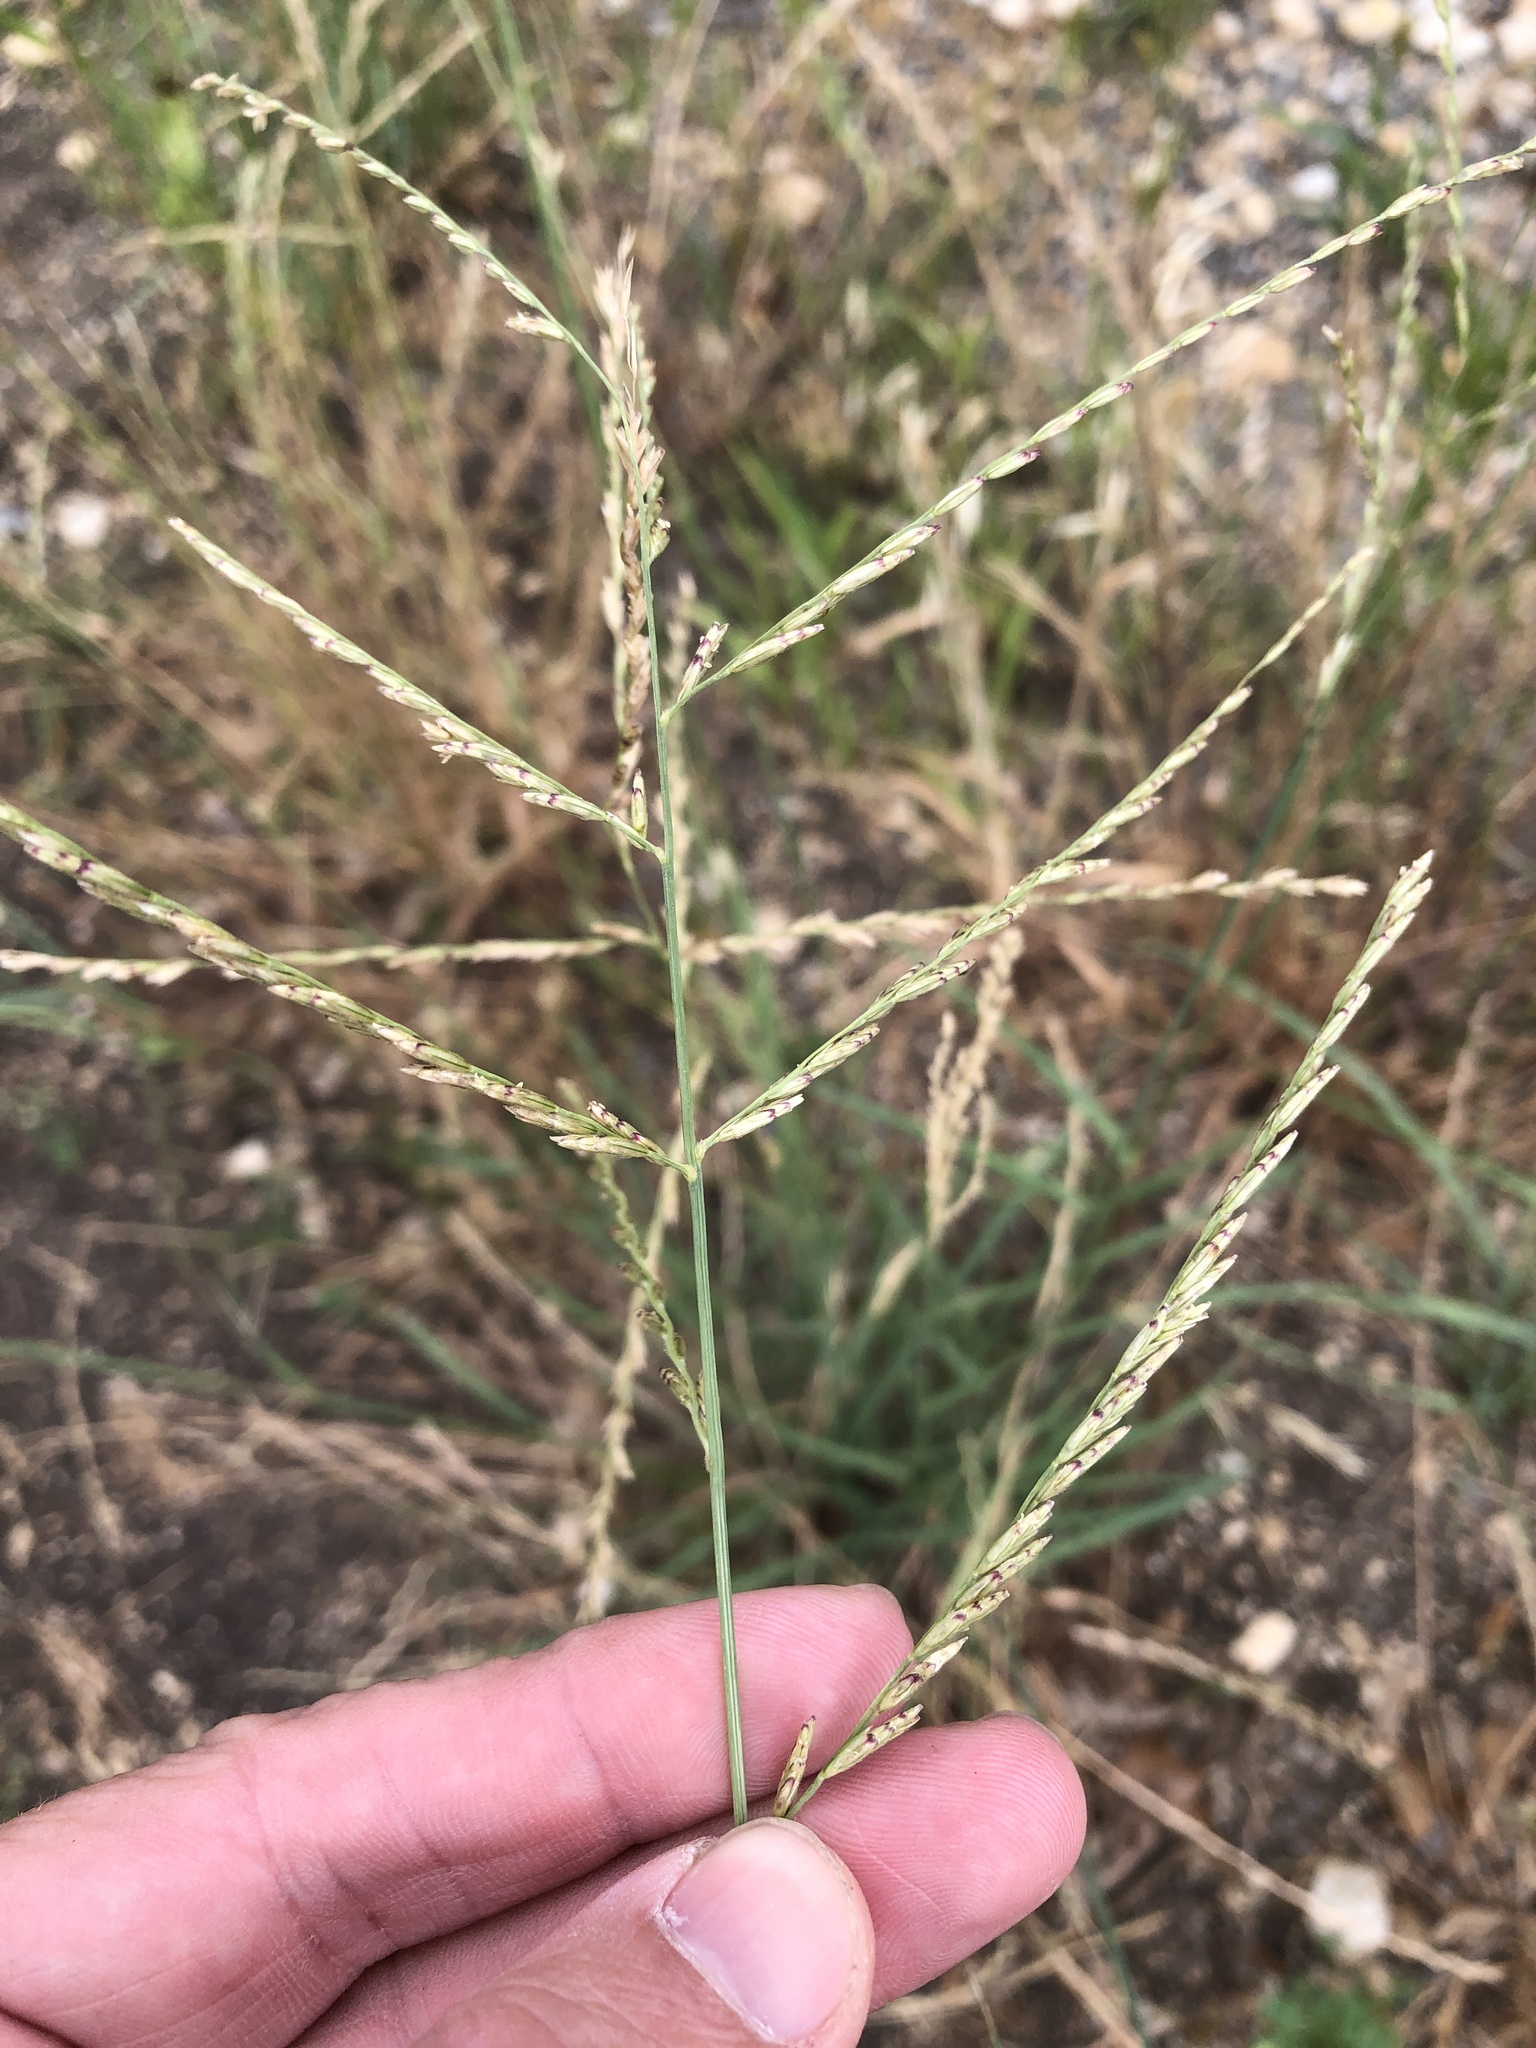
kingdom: Plantae
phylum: Tracheophyta
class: Liliopsida
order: Poales
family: Poaceae
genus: Disakisperma
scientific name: Disakisperma dubium
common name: Green sprangletop
